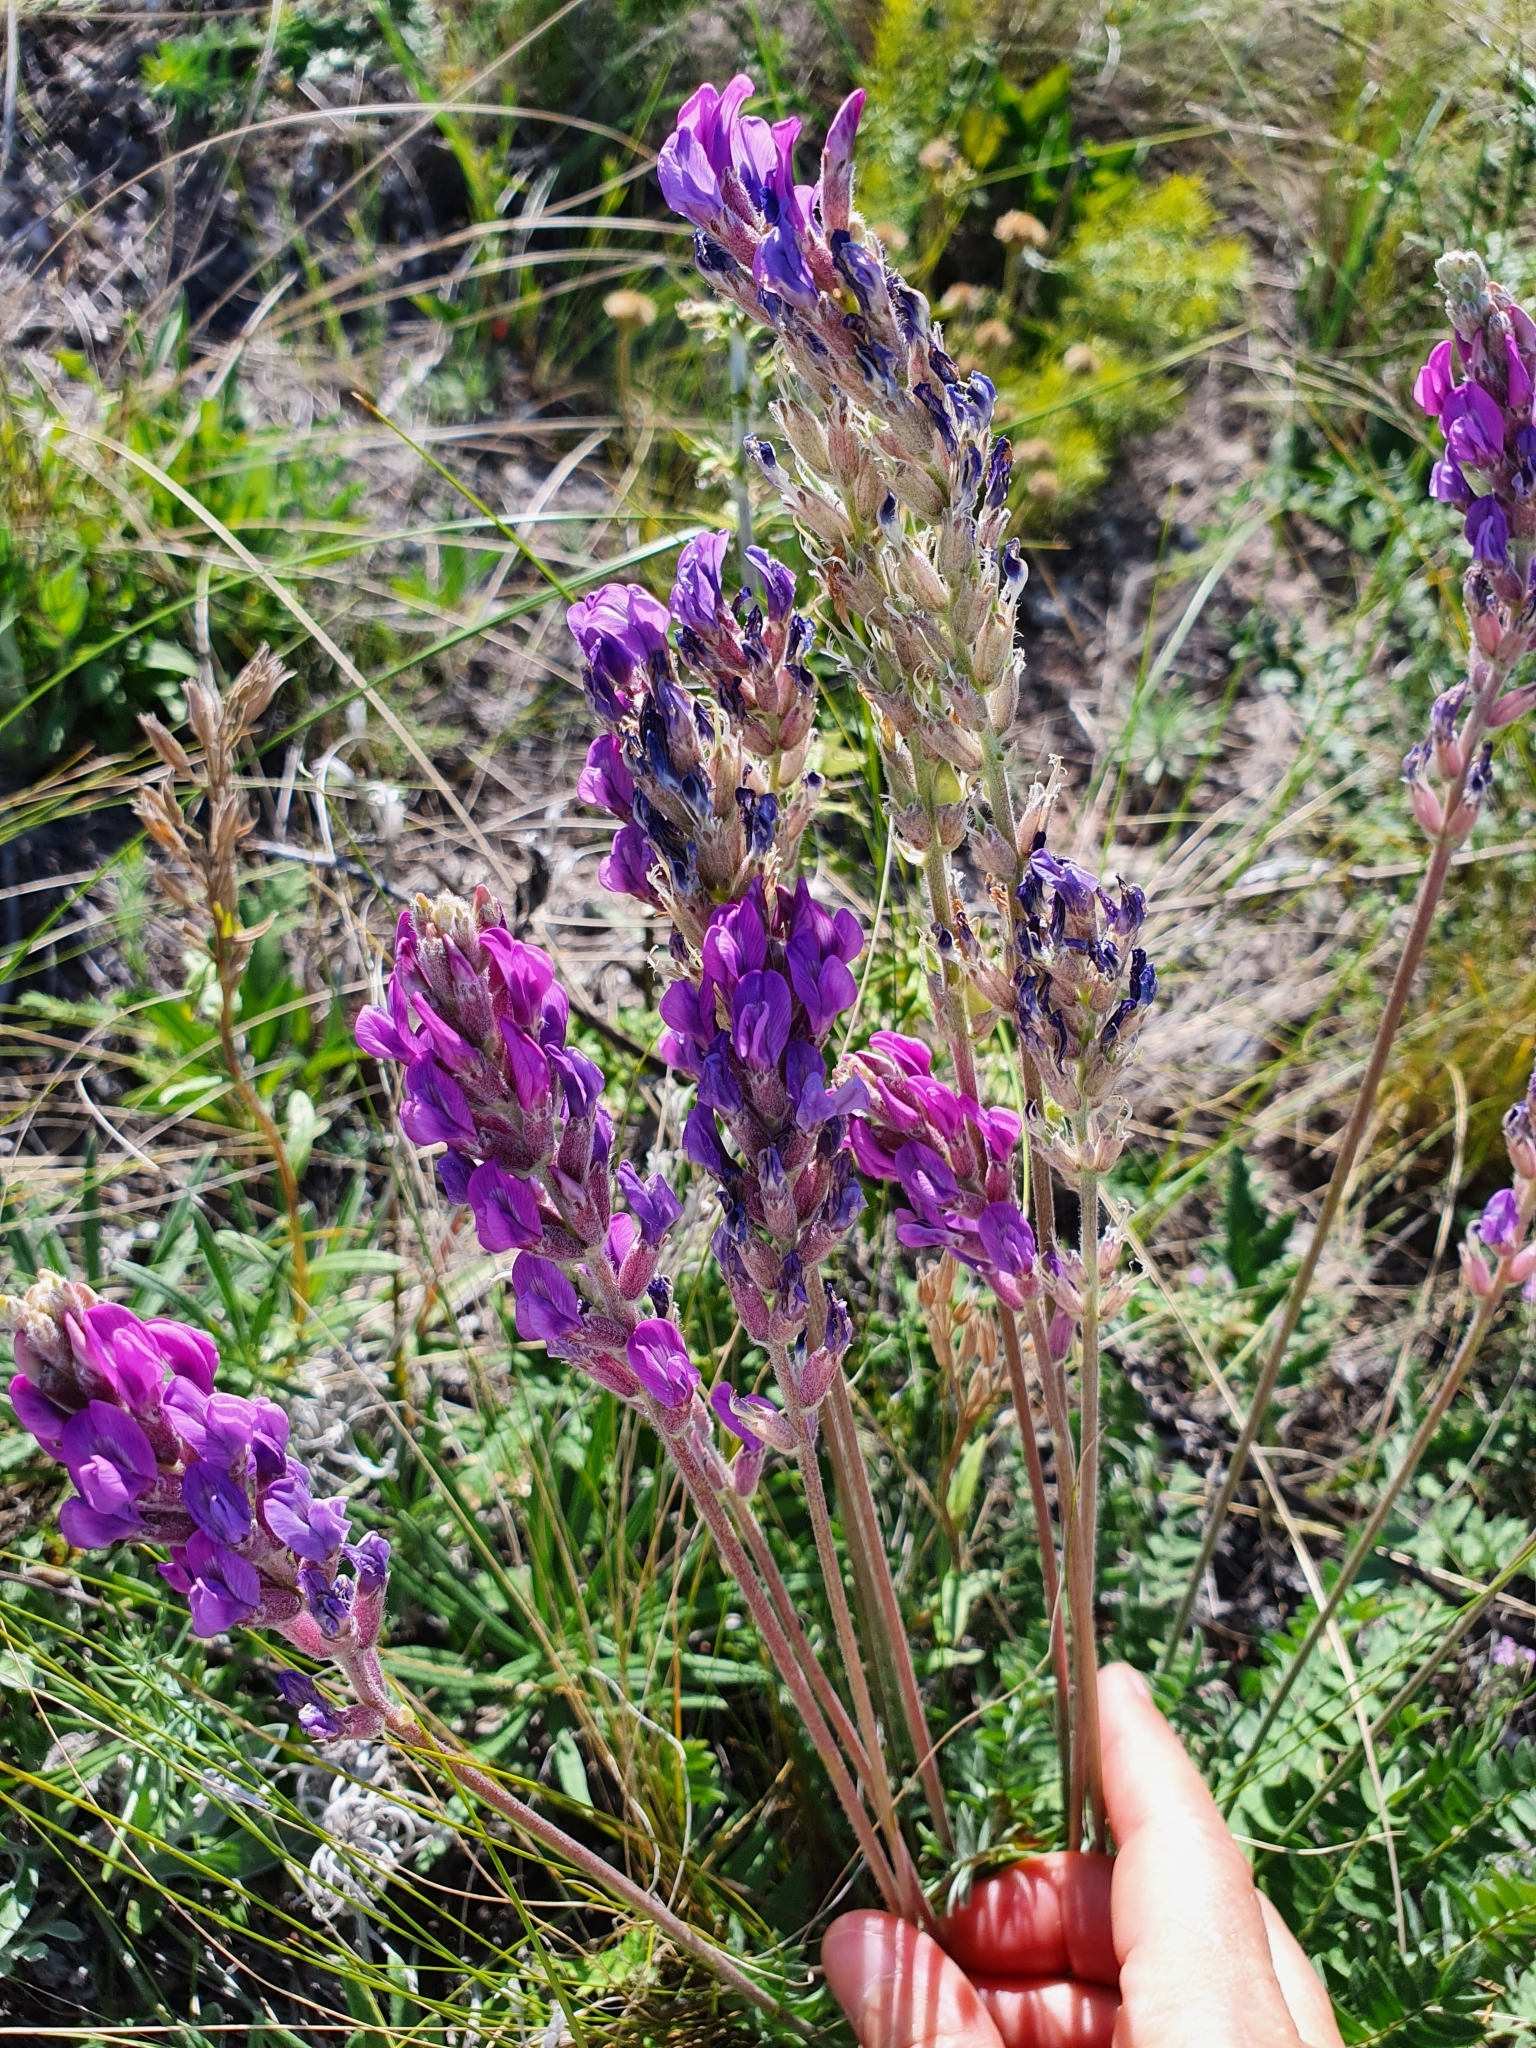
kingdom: Plantae
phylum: Tracheophyta
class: Magnoliopsida
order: Fabales
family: Fabaceae
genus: Oxytropis
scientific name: Oxytropis knjazevii
